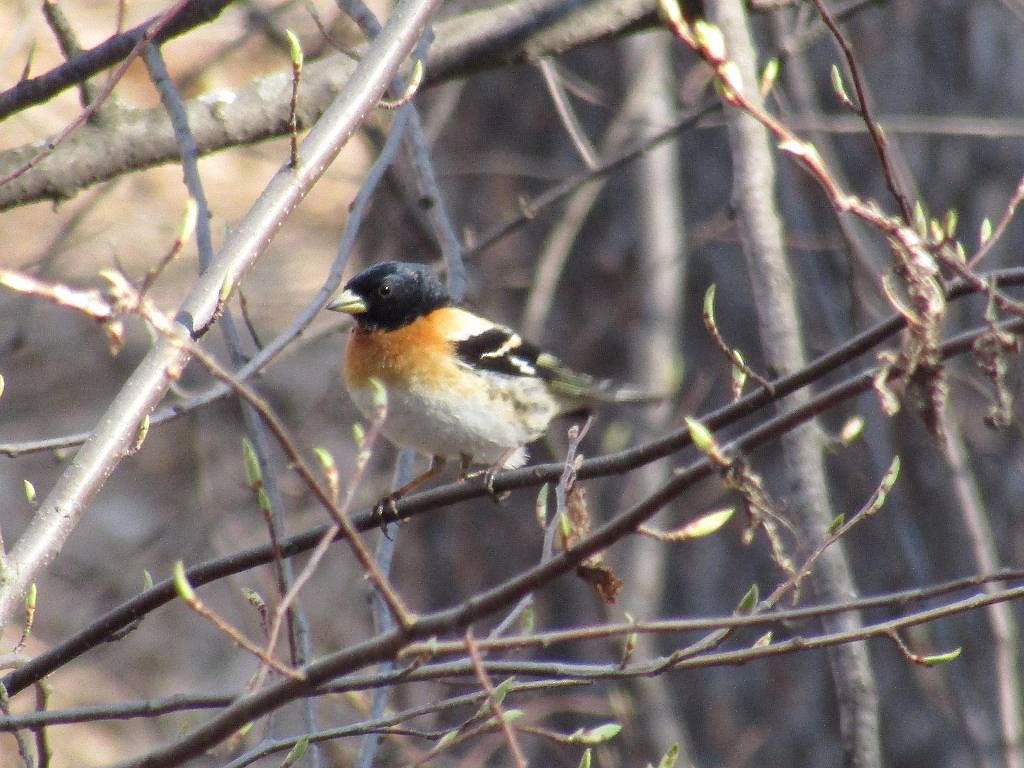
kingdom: Animalia
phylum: Chordata
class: Aves
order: Passeriformes
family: Fringillidae
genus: Fringilla
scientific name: Fringilla montifringilla
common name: Brambling
